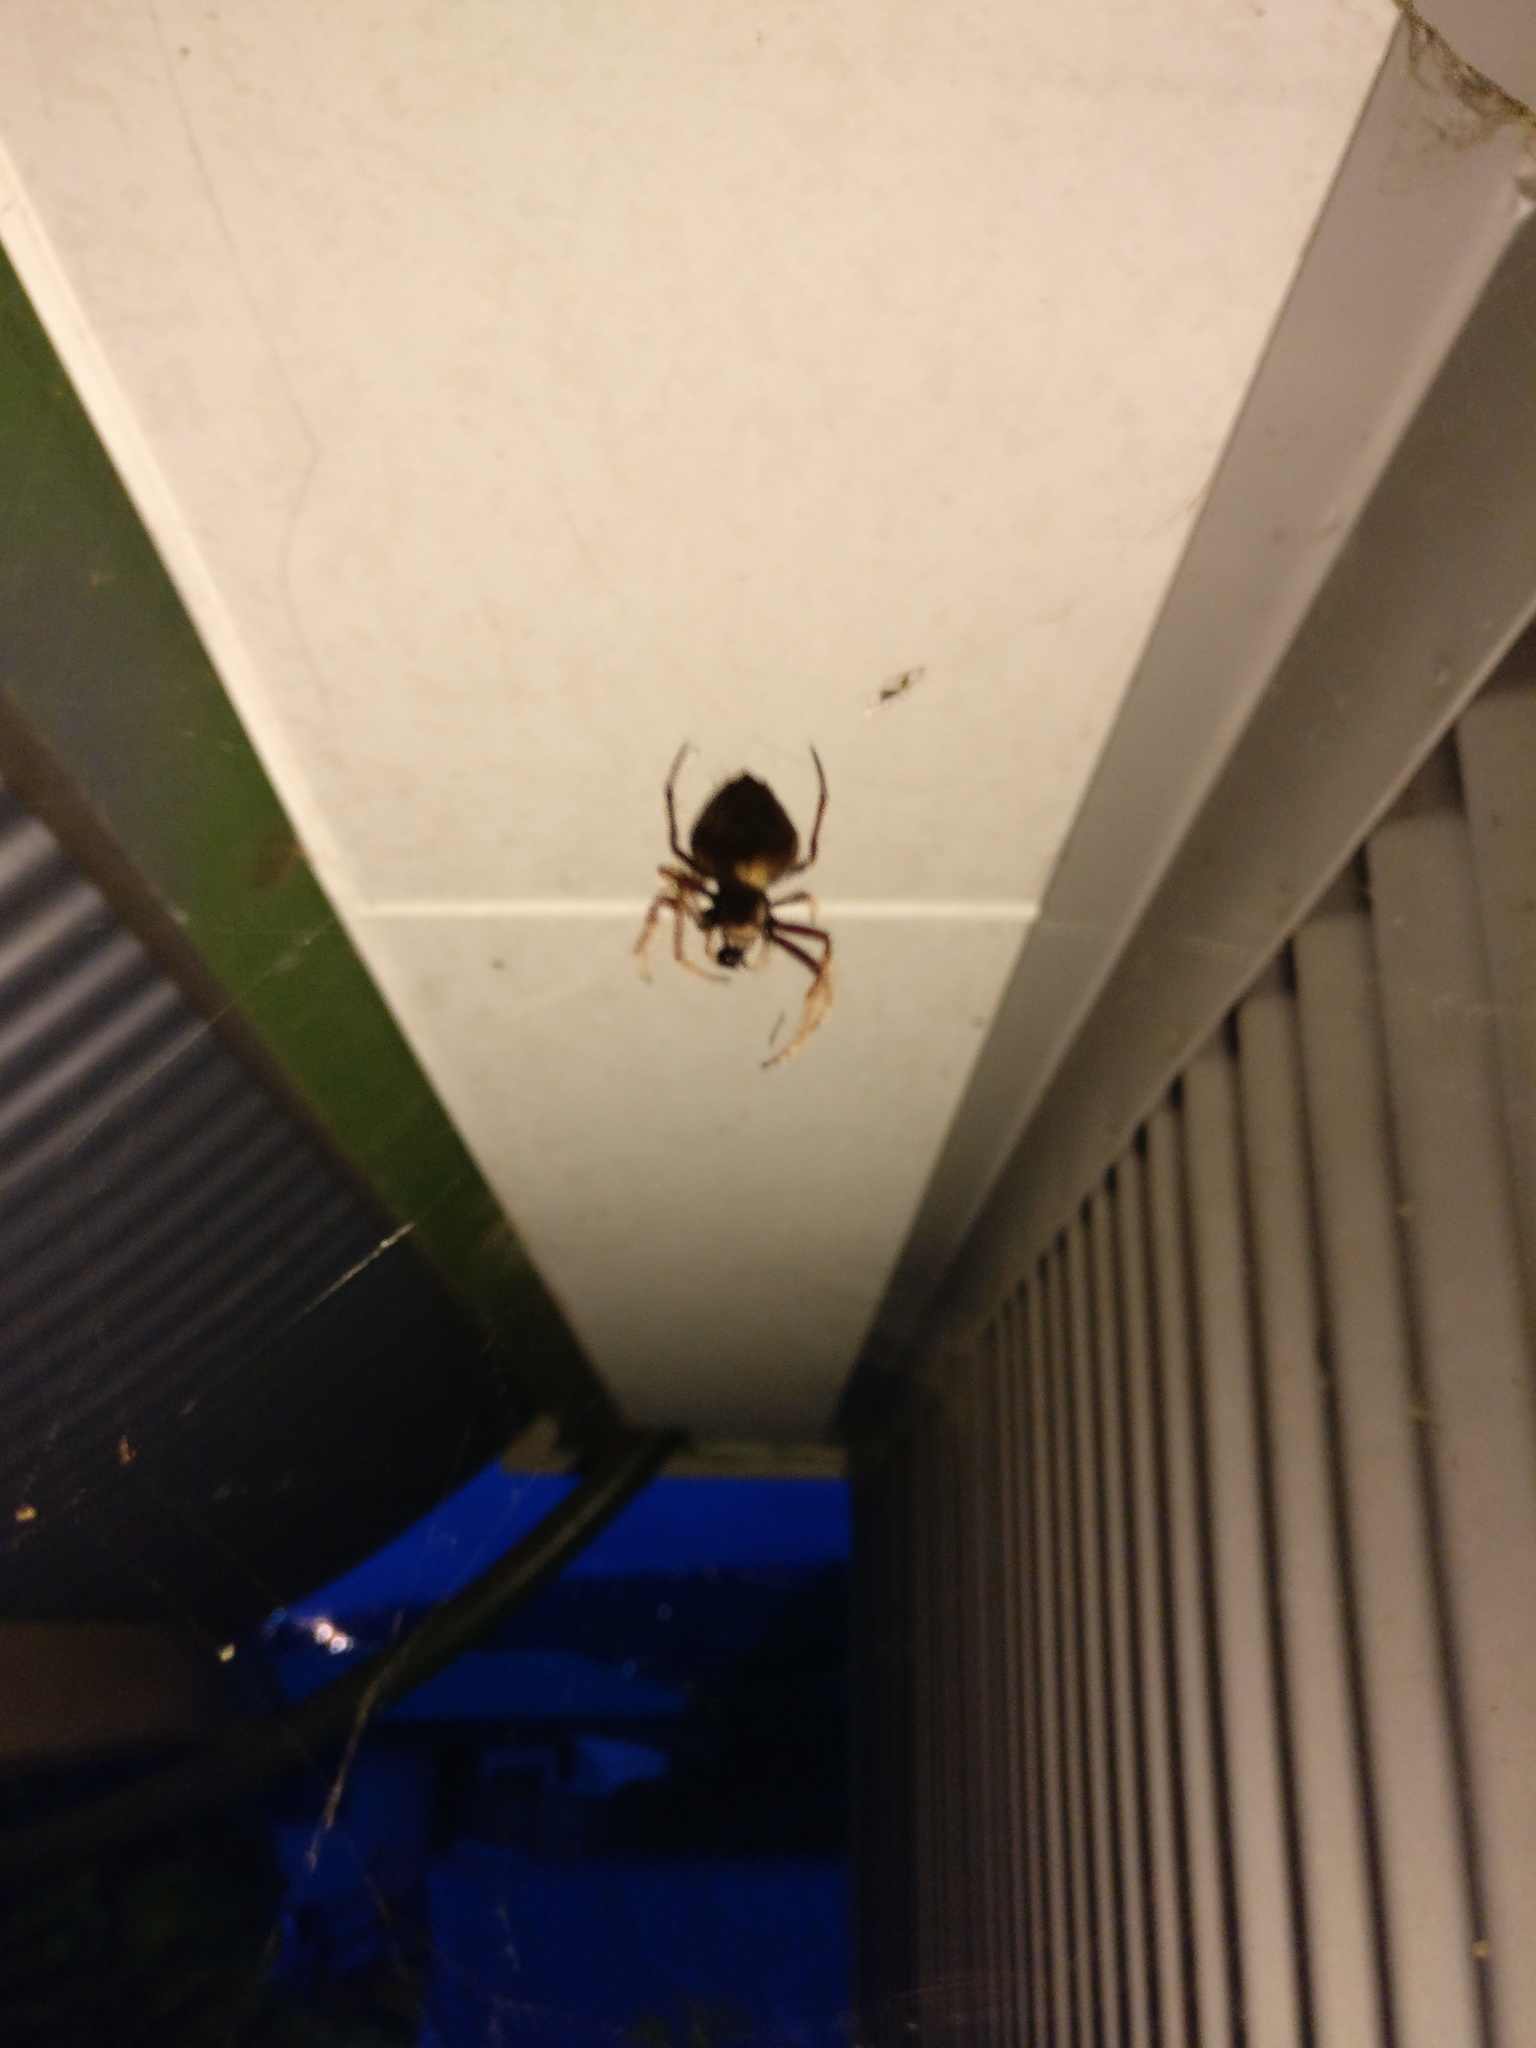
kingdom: Animalia
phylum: Arthropoda
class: Arachnida
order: Araneae
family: Araneidae
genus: Eriophora
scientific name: Eriophora pustulosa
